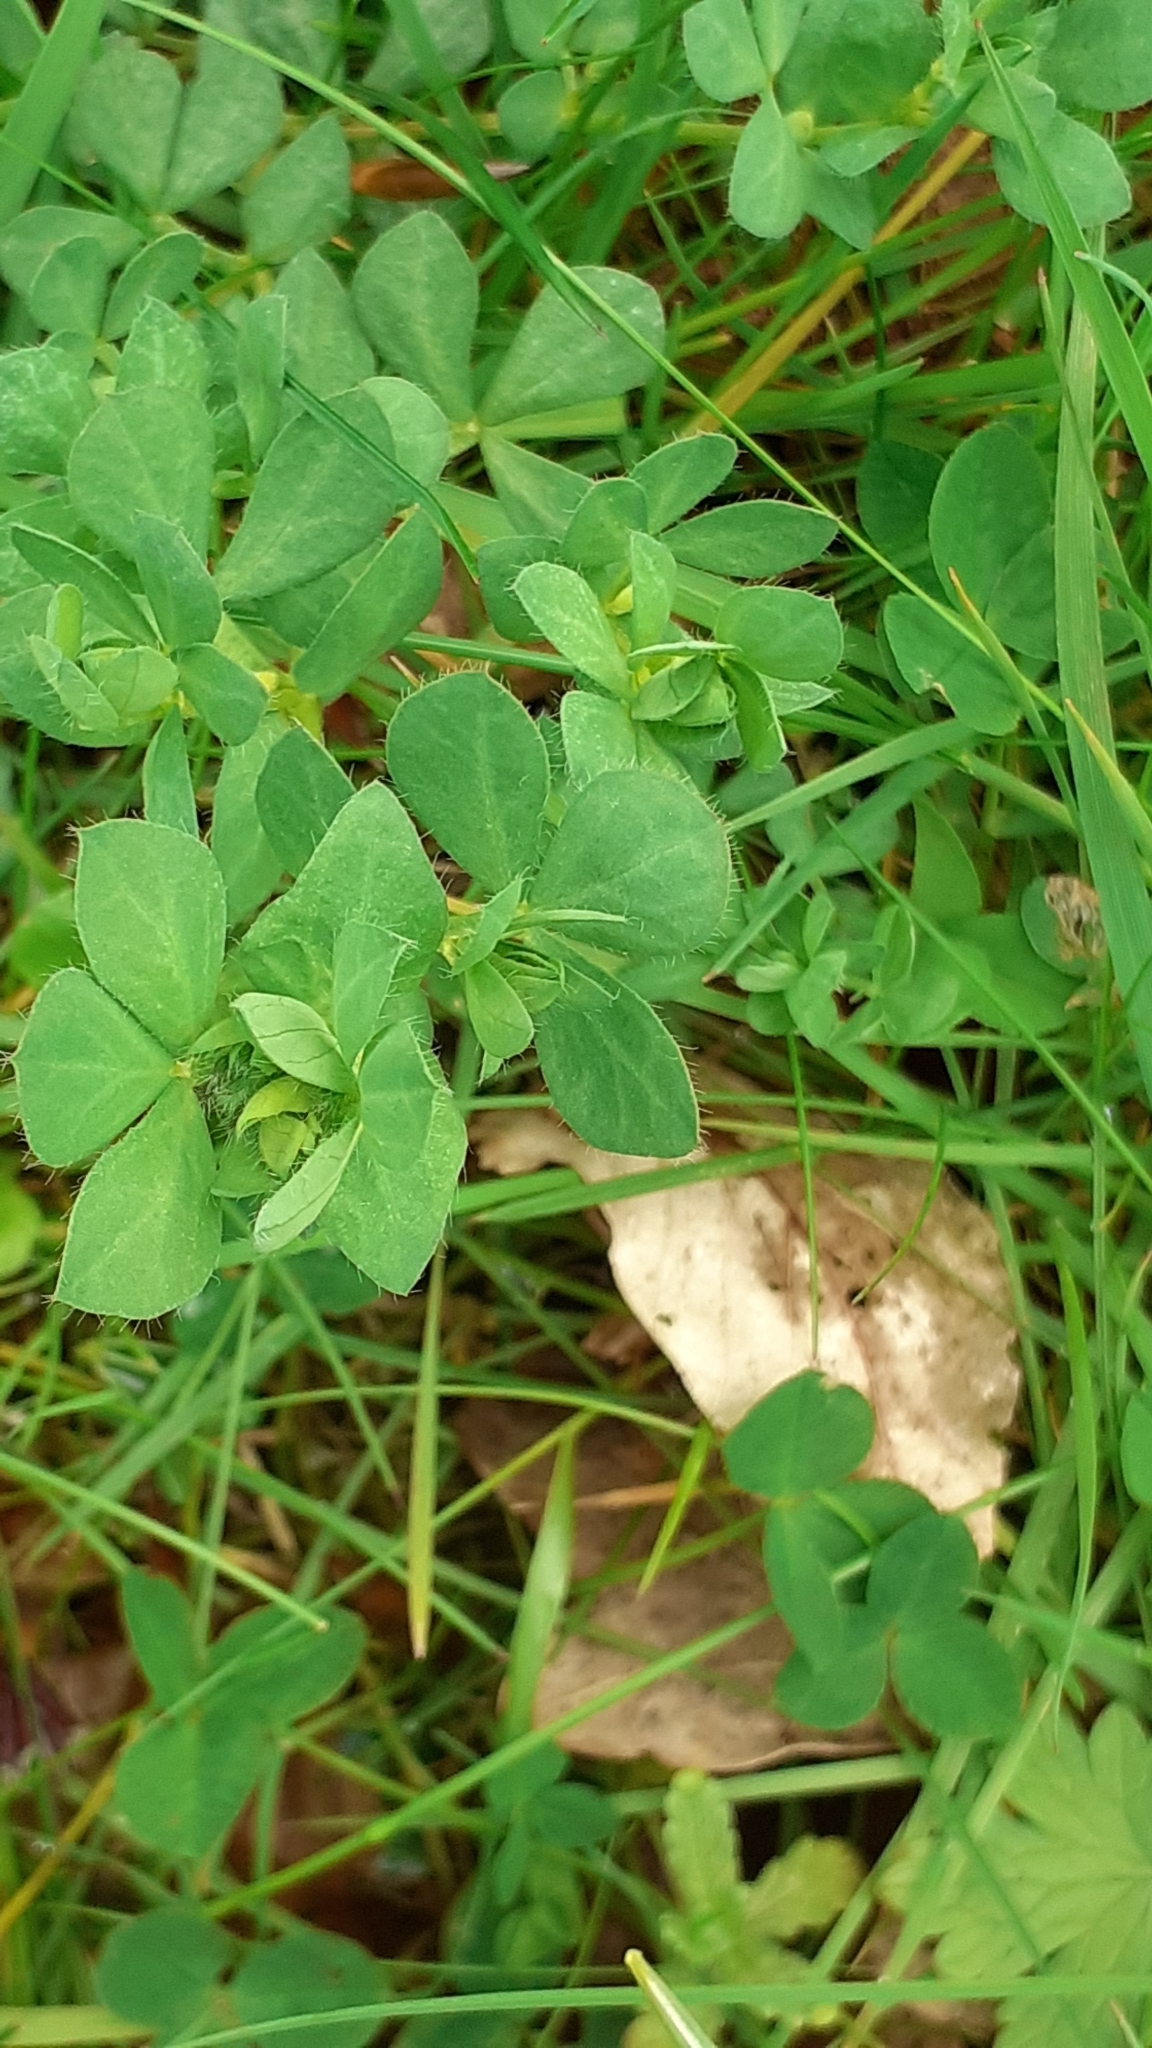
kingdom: Plantae
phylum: Tracheophyta
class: Magnoliopsida
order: Fabales
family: Fabaceae
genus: Lotus
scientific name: Lotus corniculatus
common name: Common bird's-foot-trefoil
